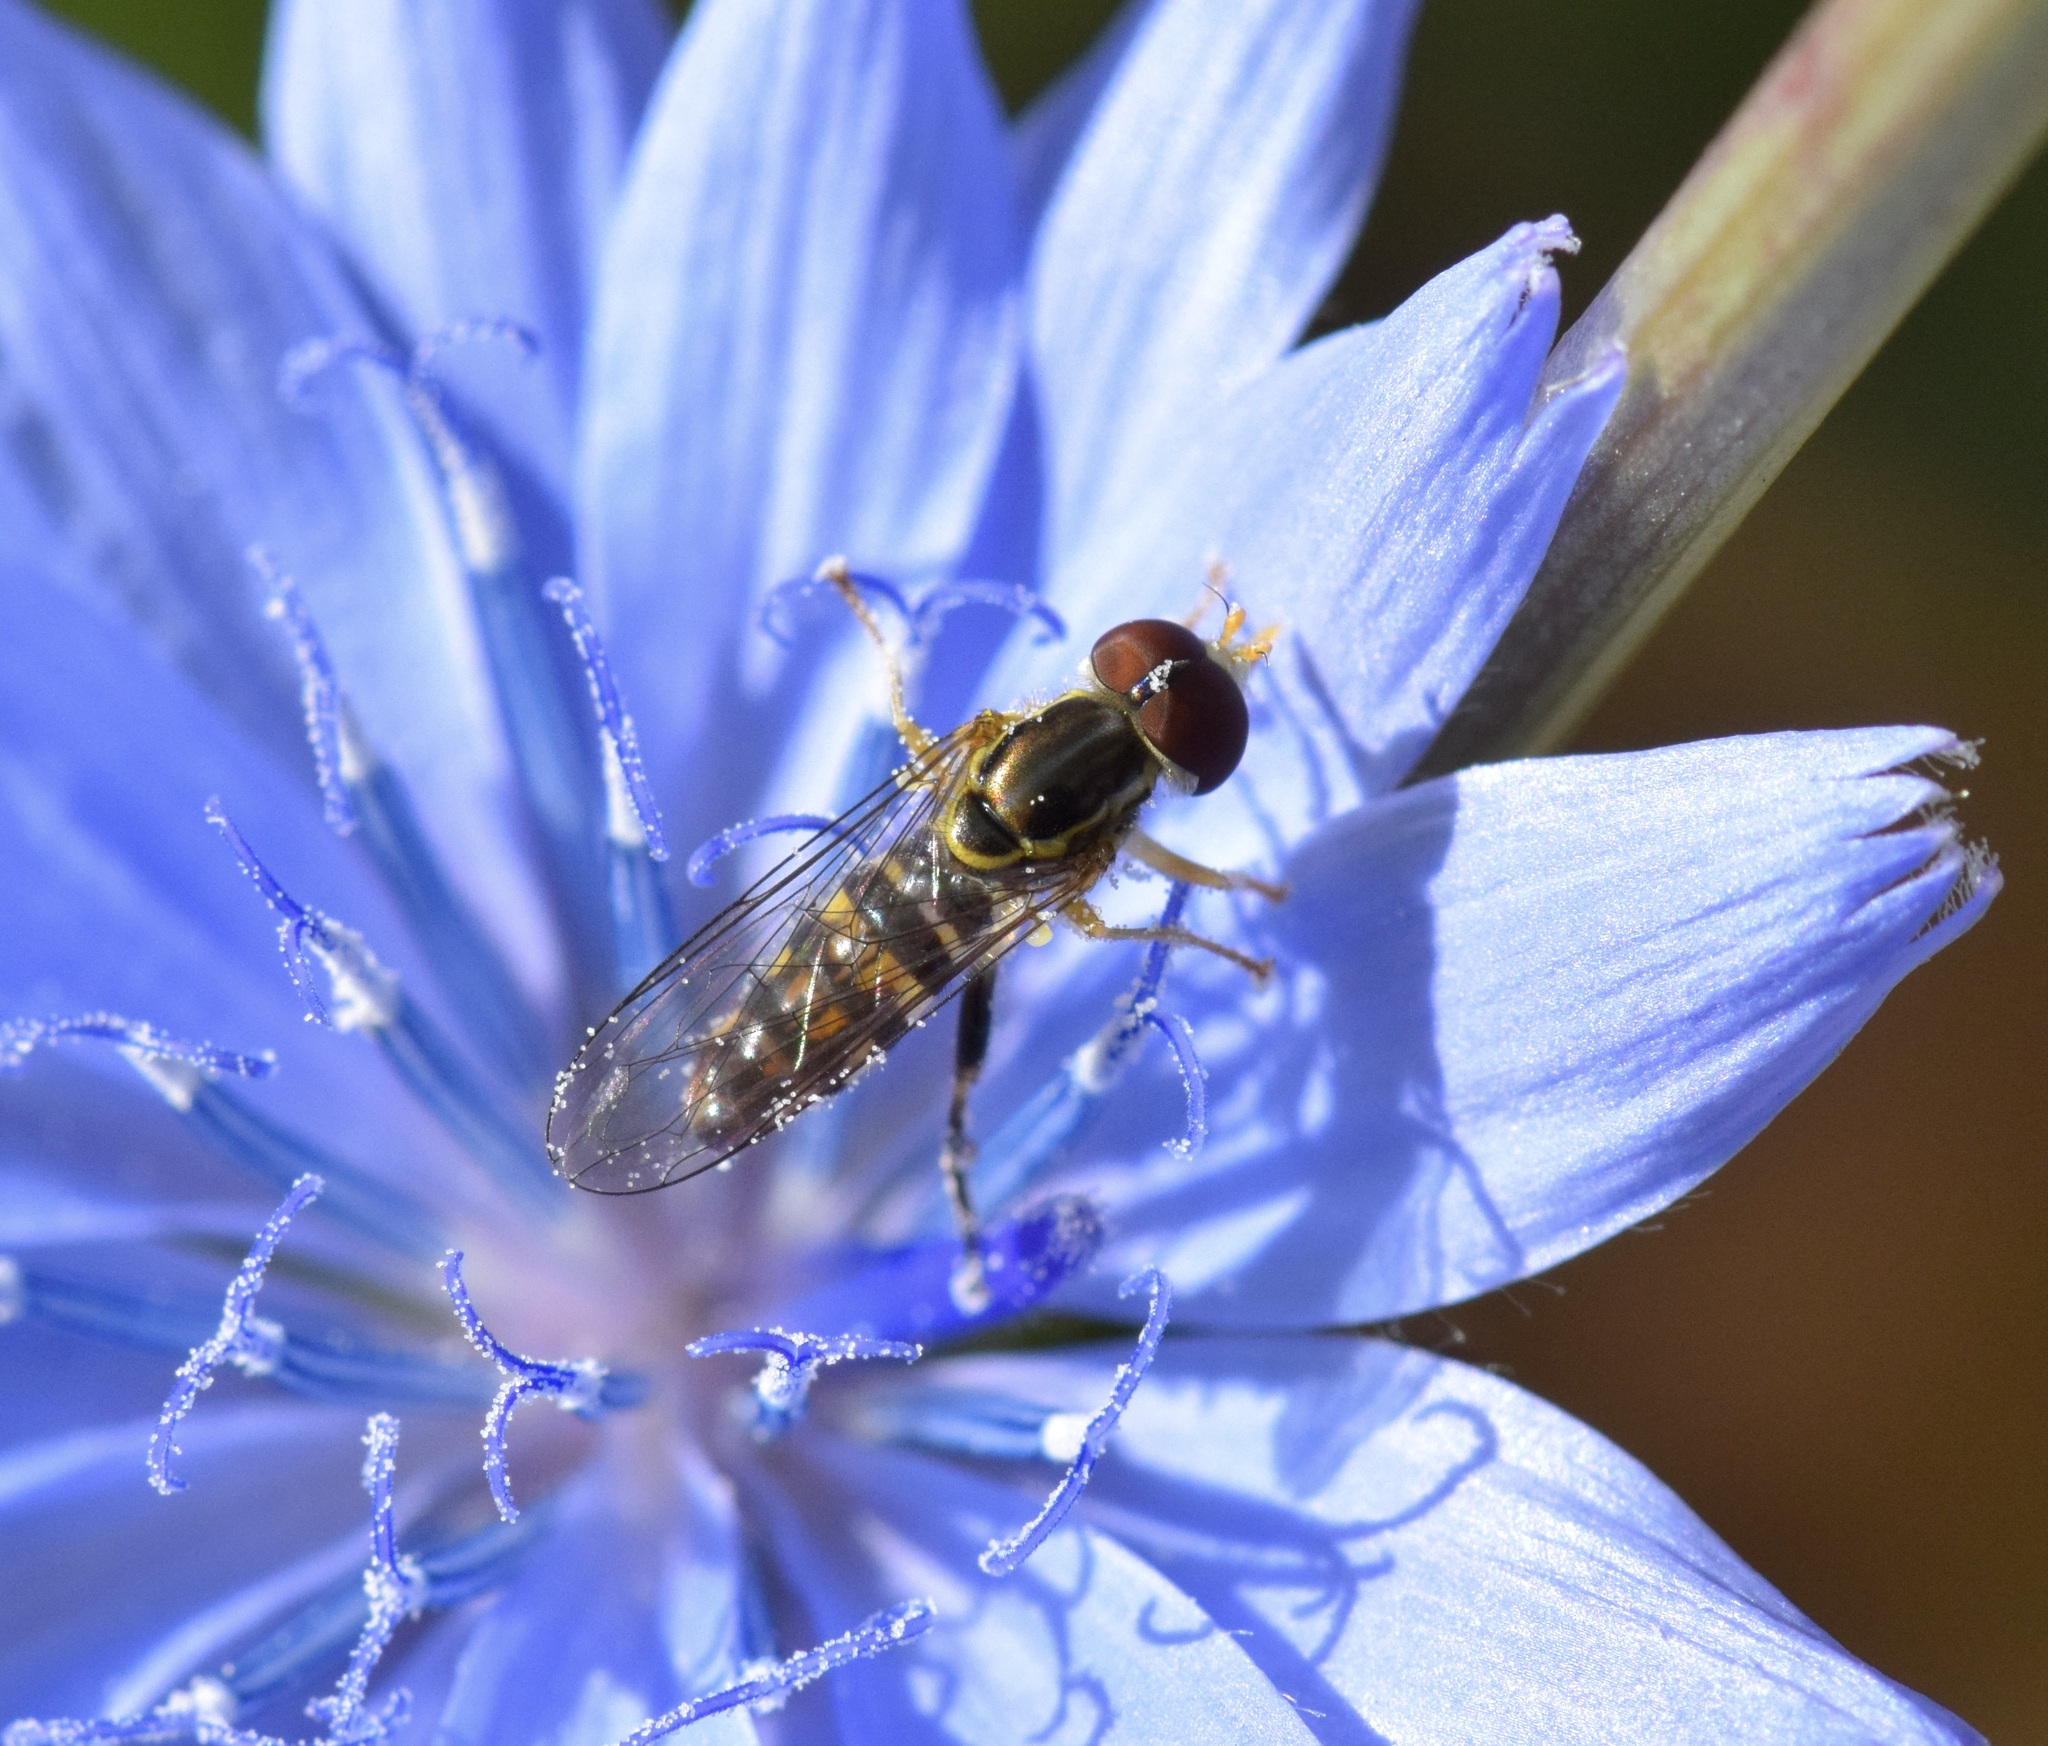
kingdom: Animalia
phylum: Arthropoda
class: Insecta
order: Diptera
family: Syrphidae
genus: Toxomerus
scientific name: Toxomerus geminatus
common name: Eastern calligrapher
